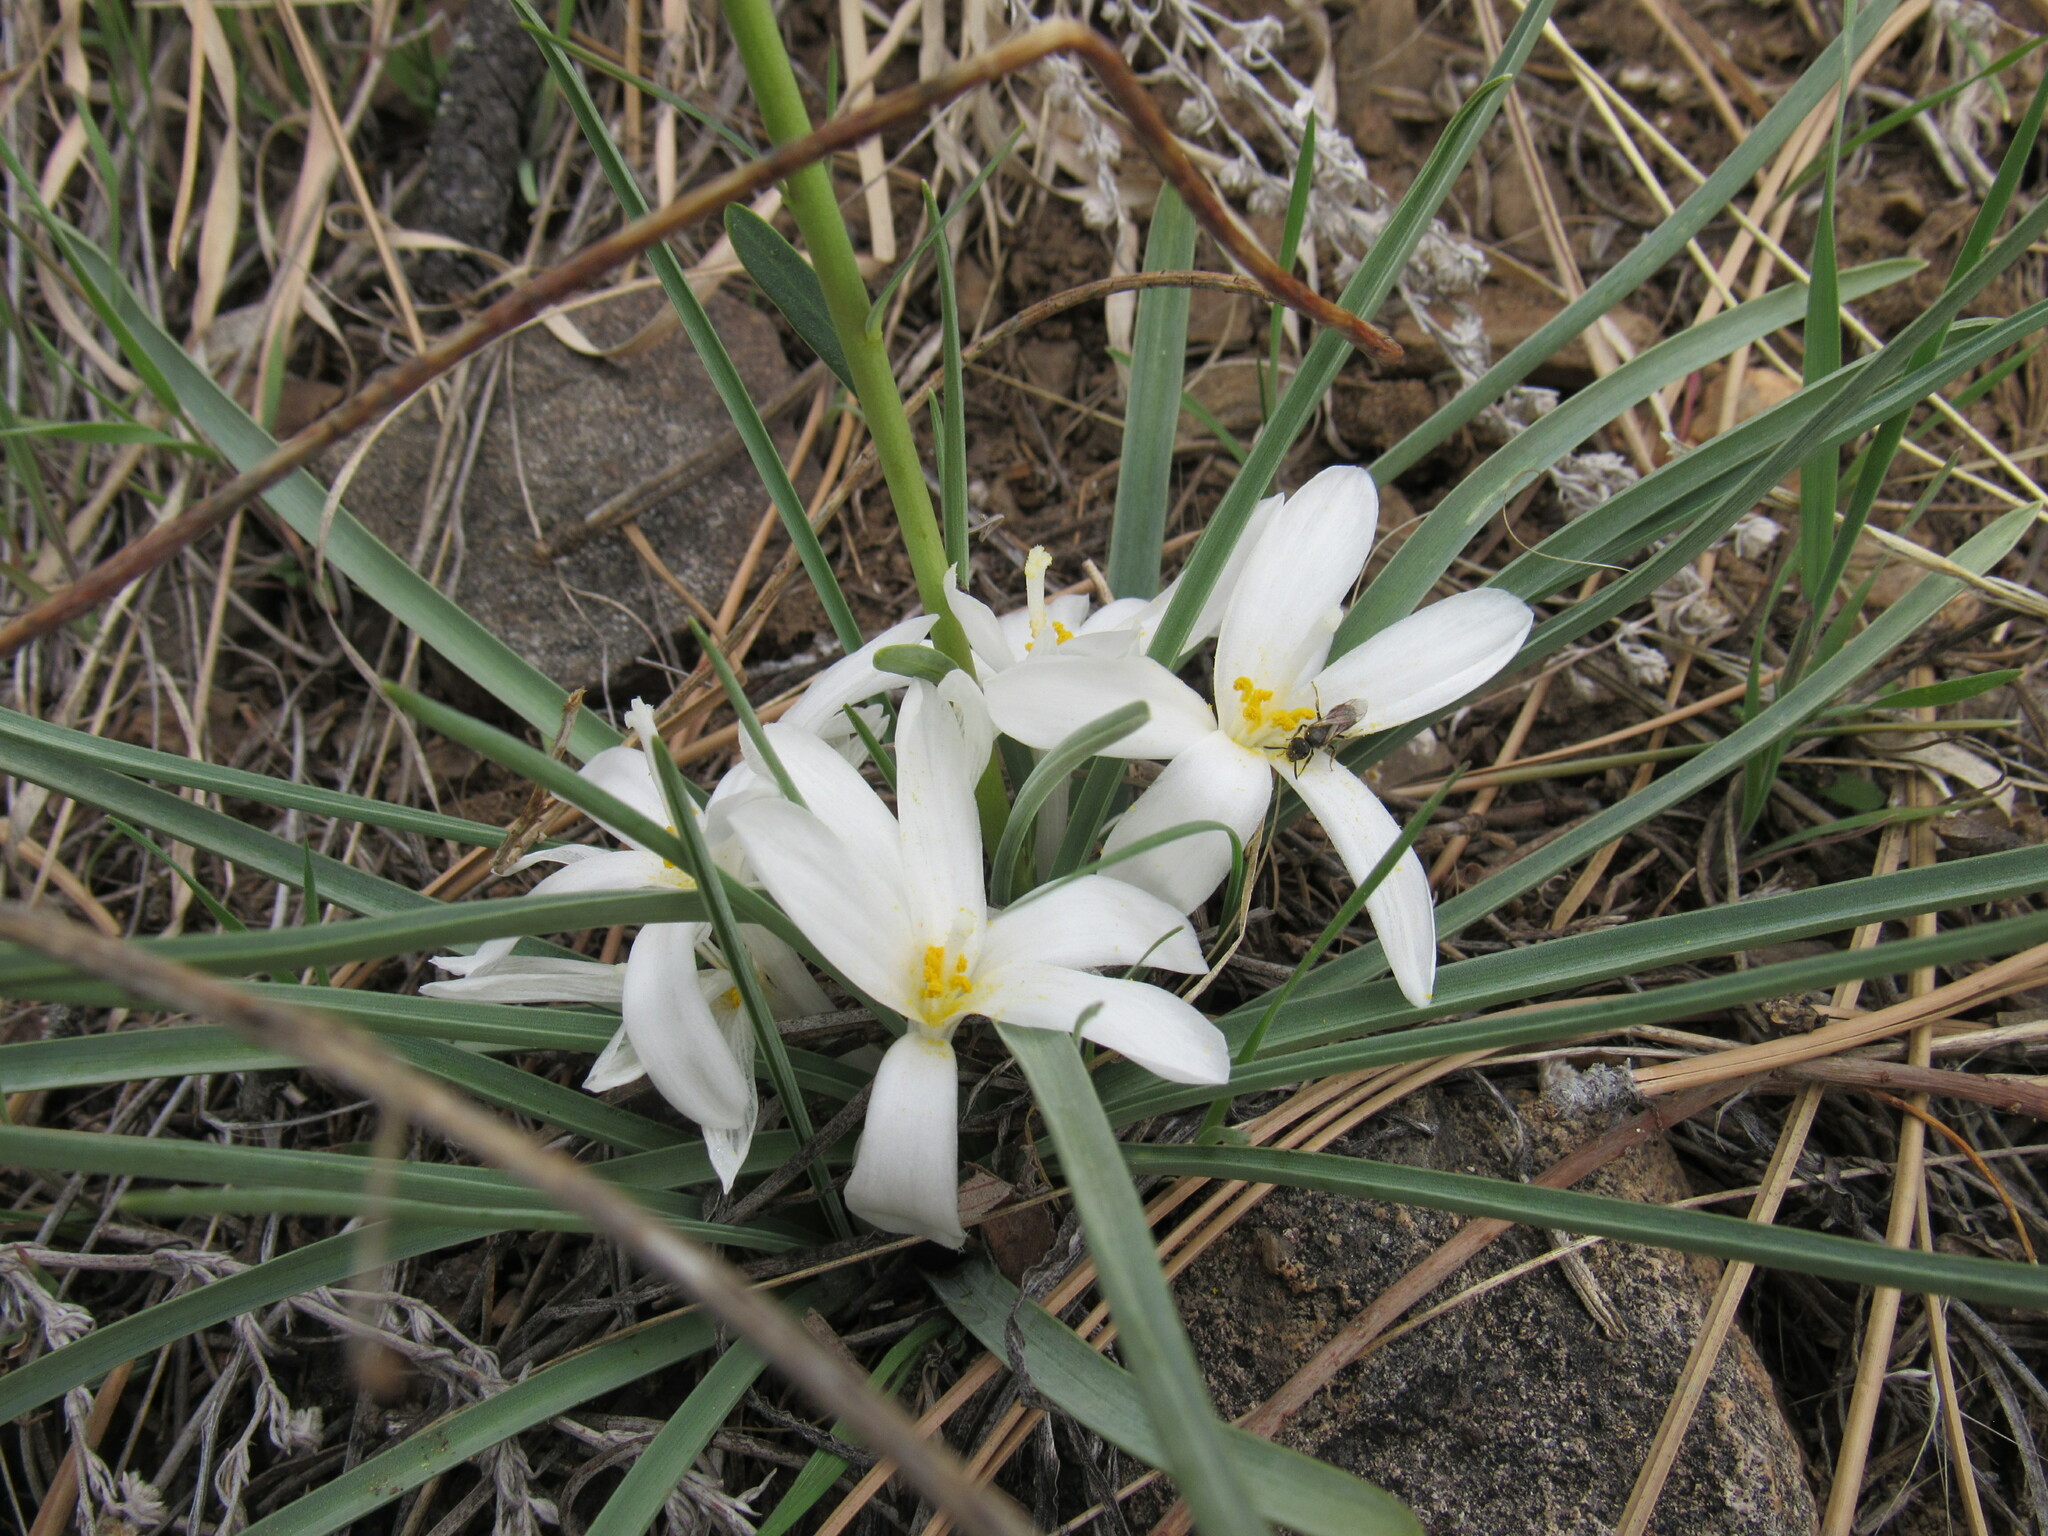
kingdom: Plantae
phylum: Tracheophyta
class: Liliopsida
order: Asparagales
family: Asparagaceae
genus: Leucocrinum
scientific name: Leucocrinum montanum
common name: Mountain-lily
